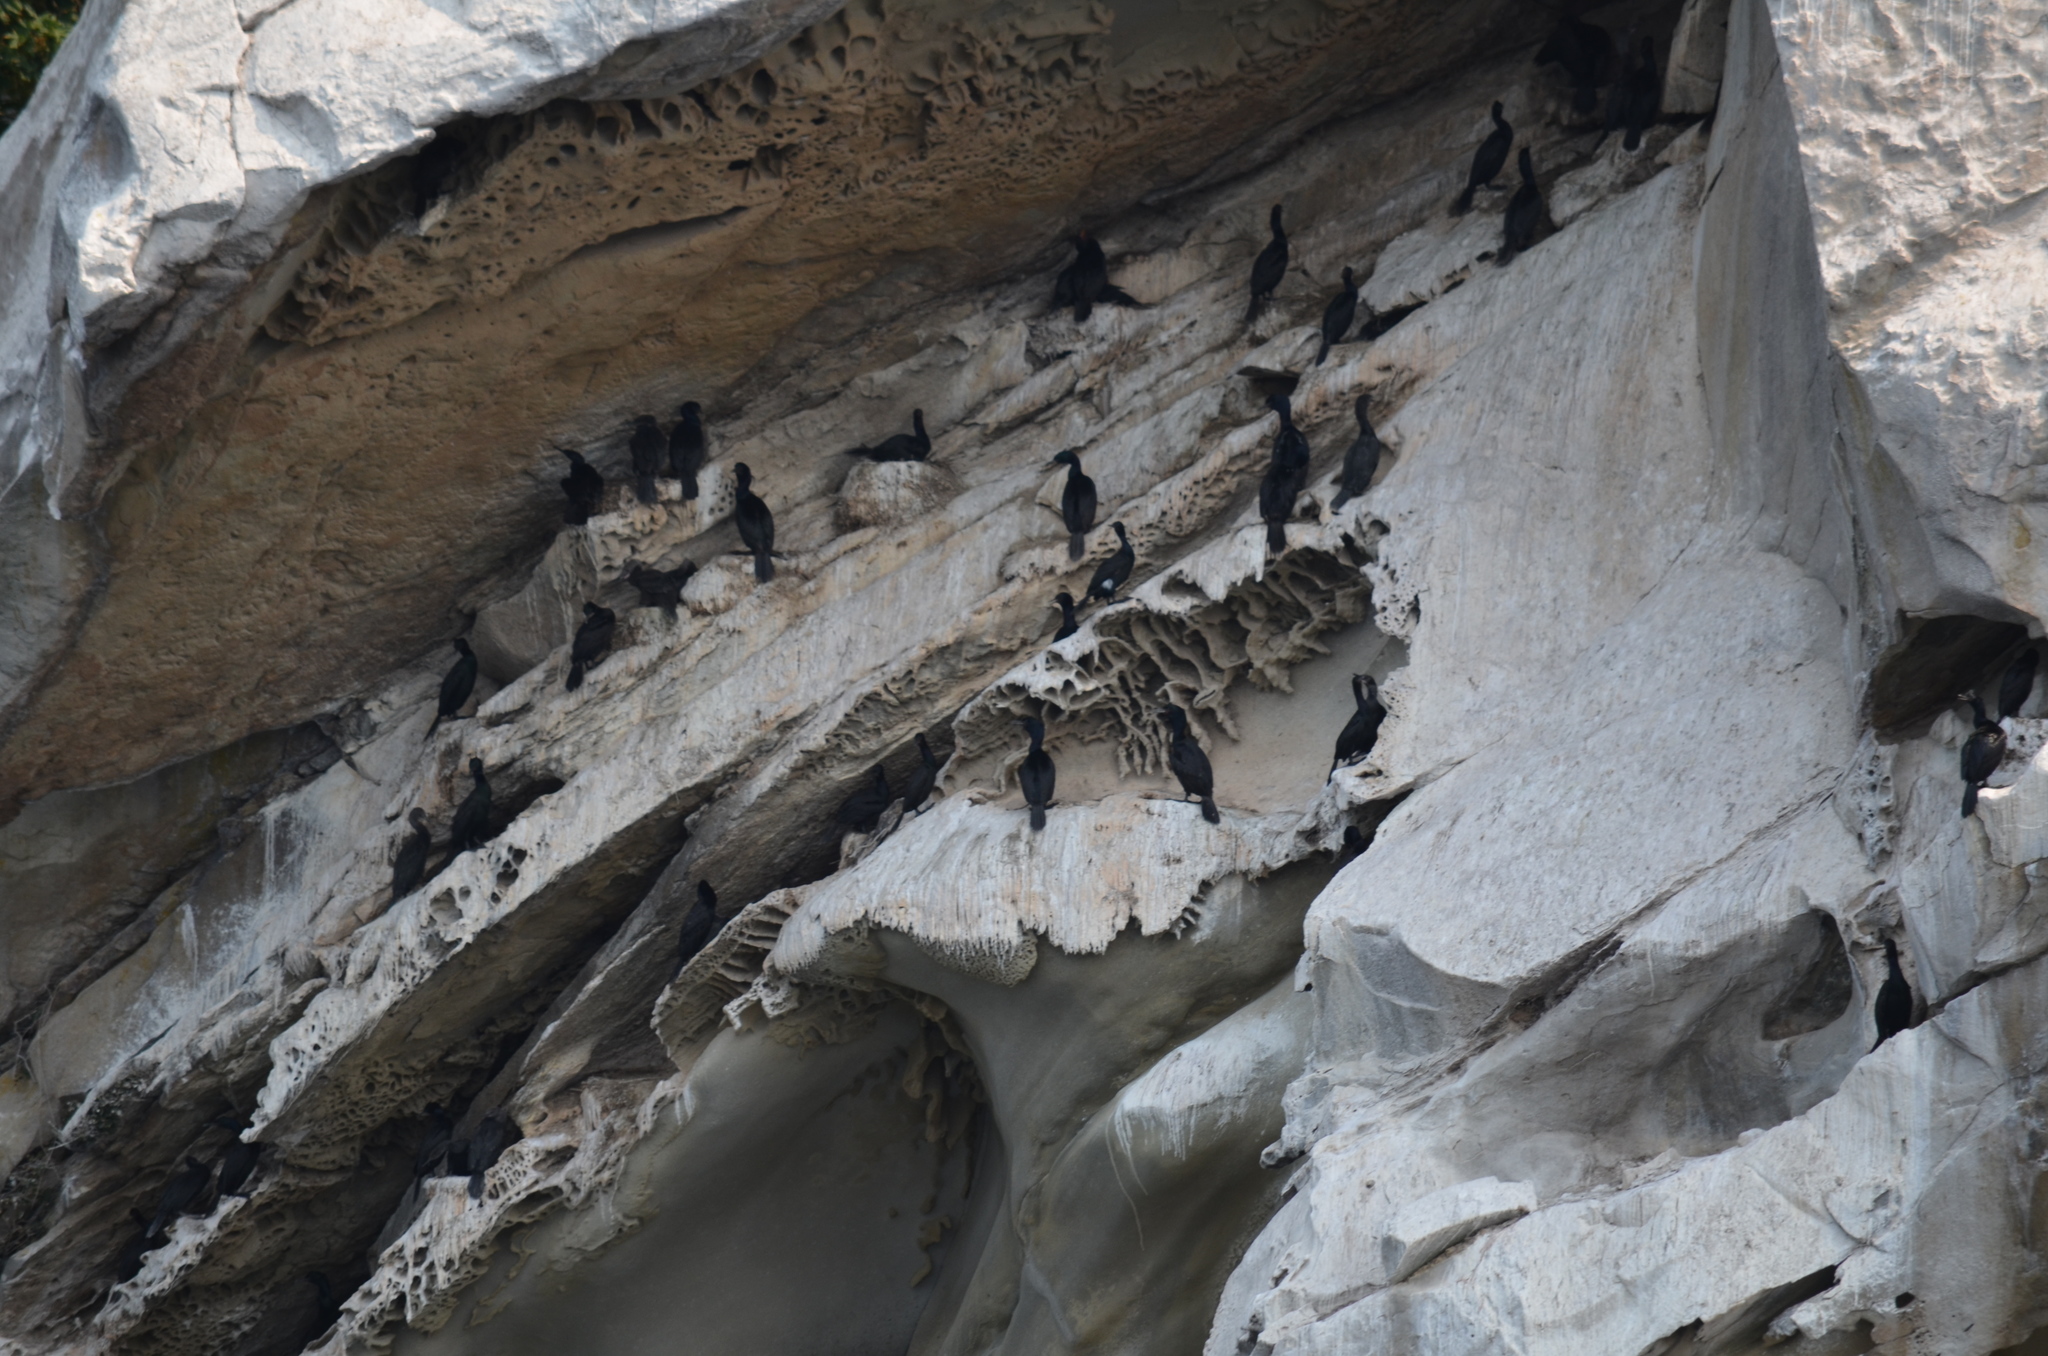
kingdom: Animalia
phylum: Chordata
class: Aves
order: Suliformes
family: Phalacrocoracidae
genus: Phalacrocorax
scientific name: Phalacrocorax pelagicus
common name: Pelagic cormorant
